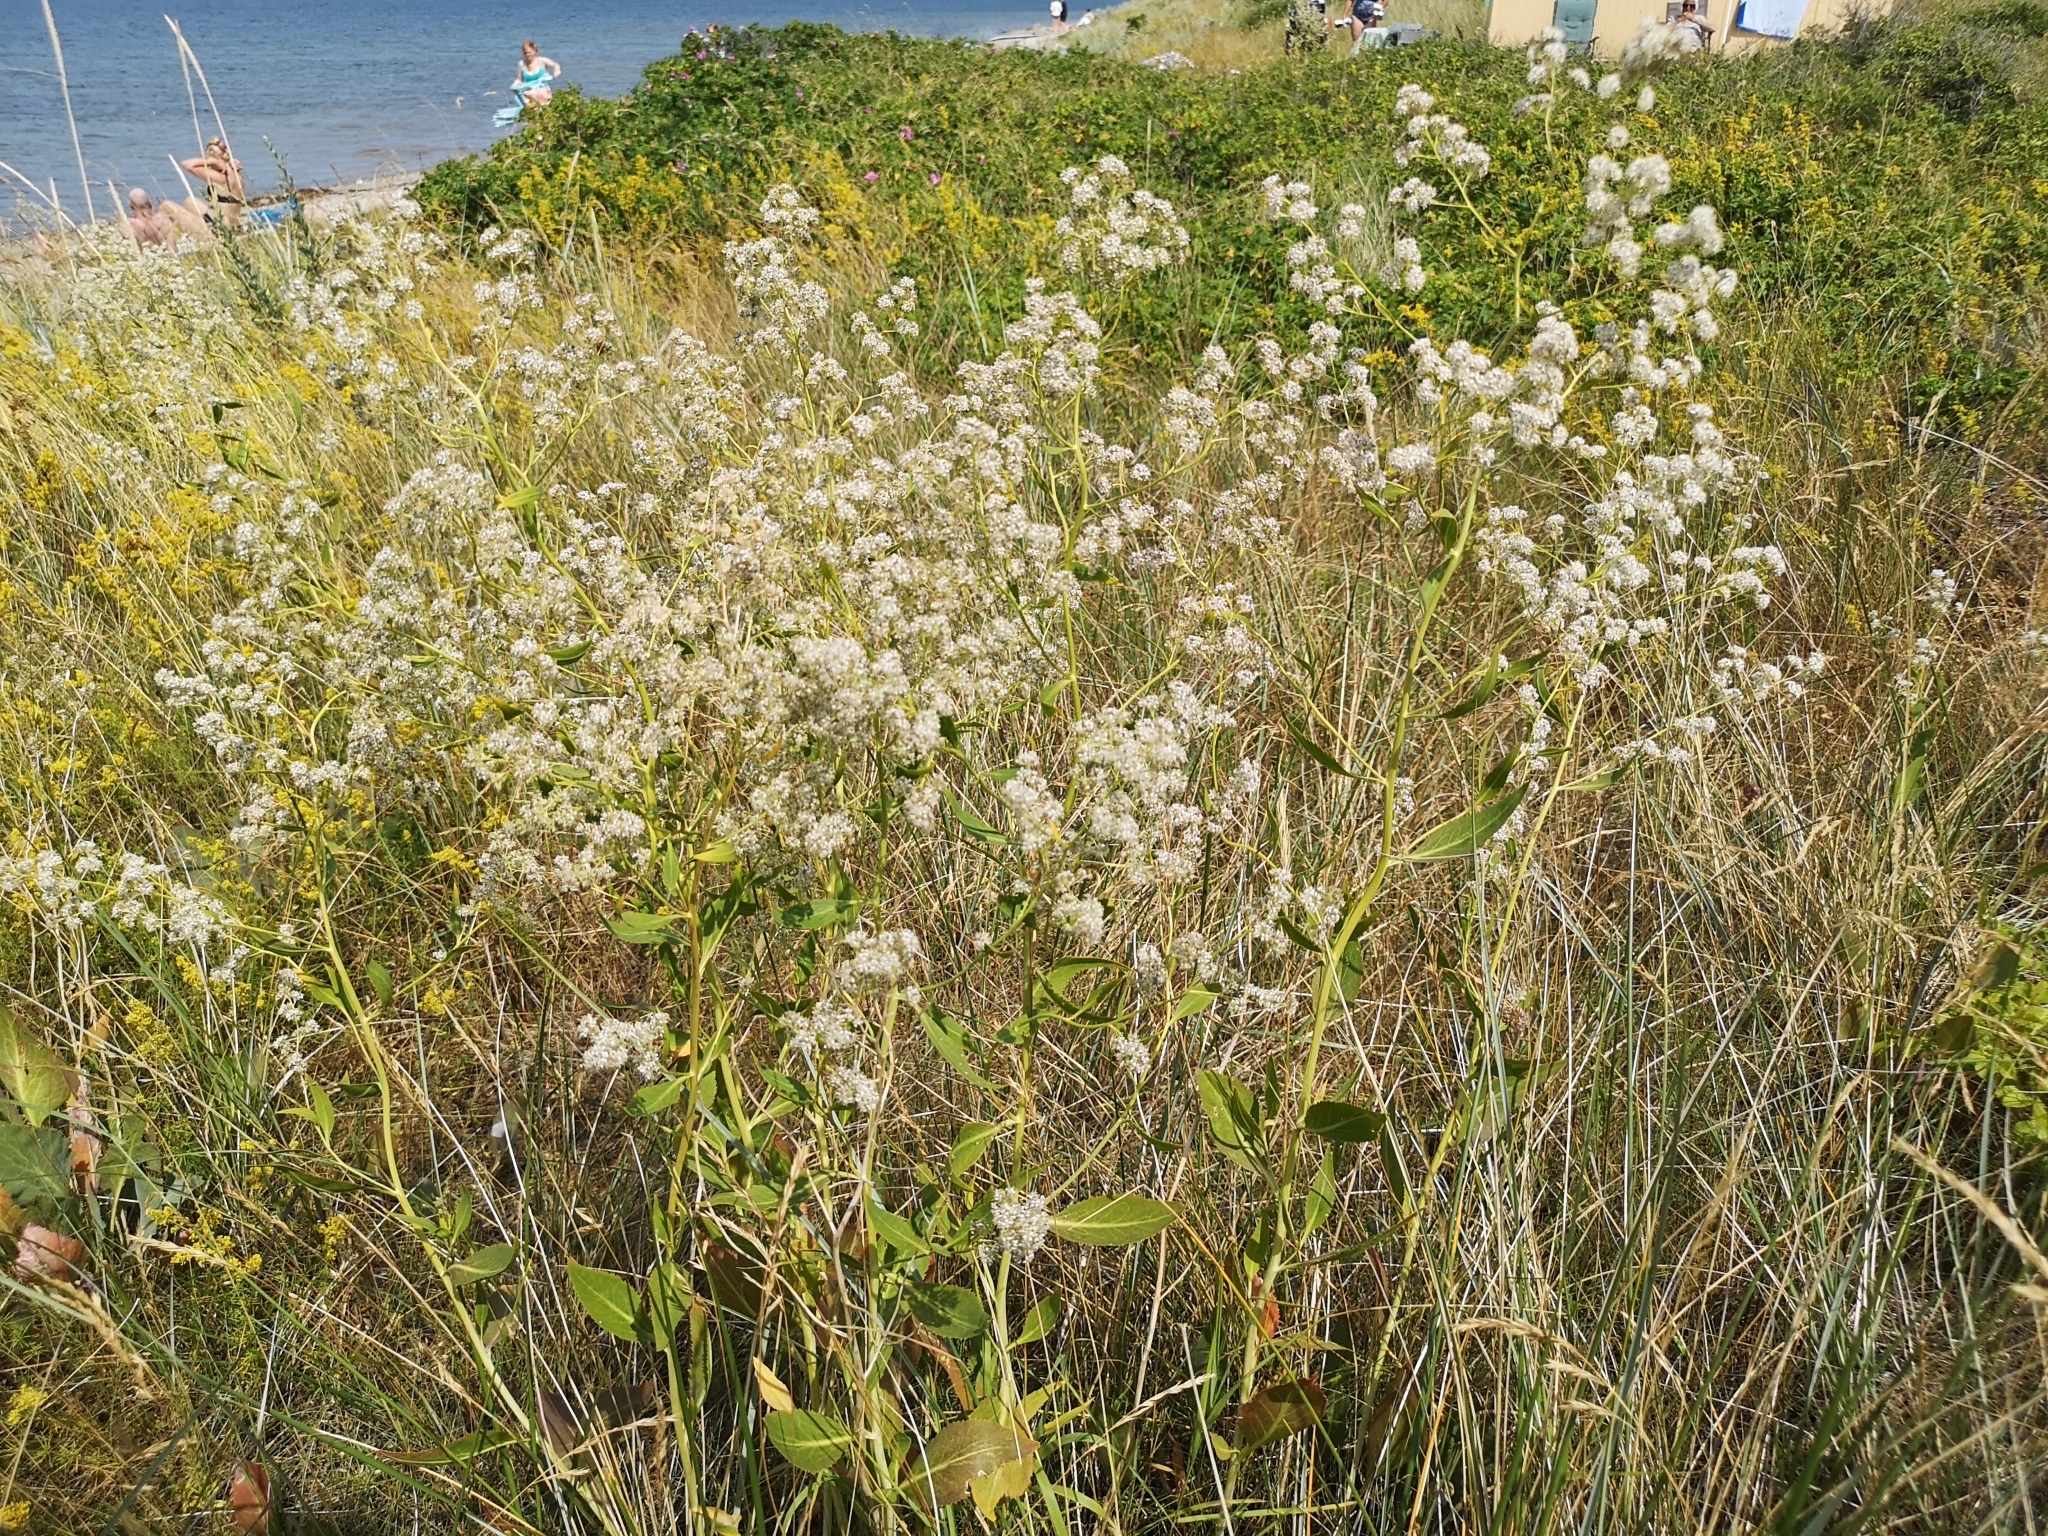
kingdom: Plantae
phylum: Tracheophyta
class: Magnoliopsida
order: Brassicales
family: Brassicaceae
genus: Lepidium
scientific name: Lepidium latifolium
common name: Dittander
